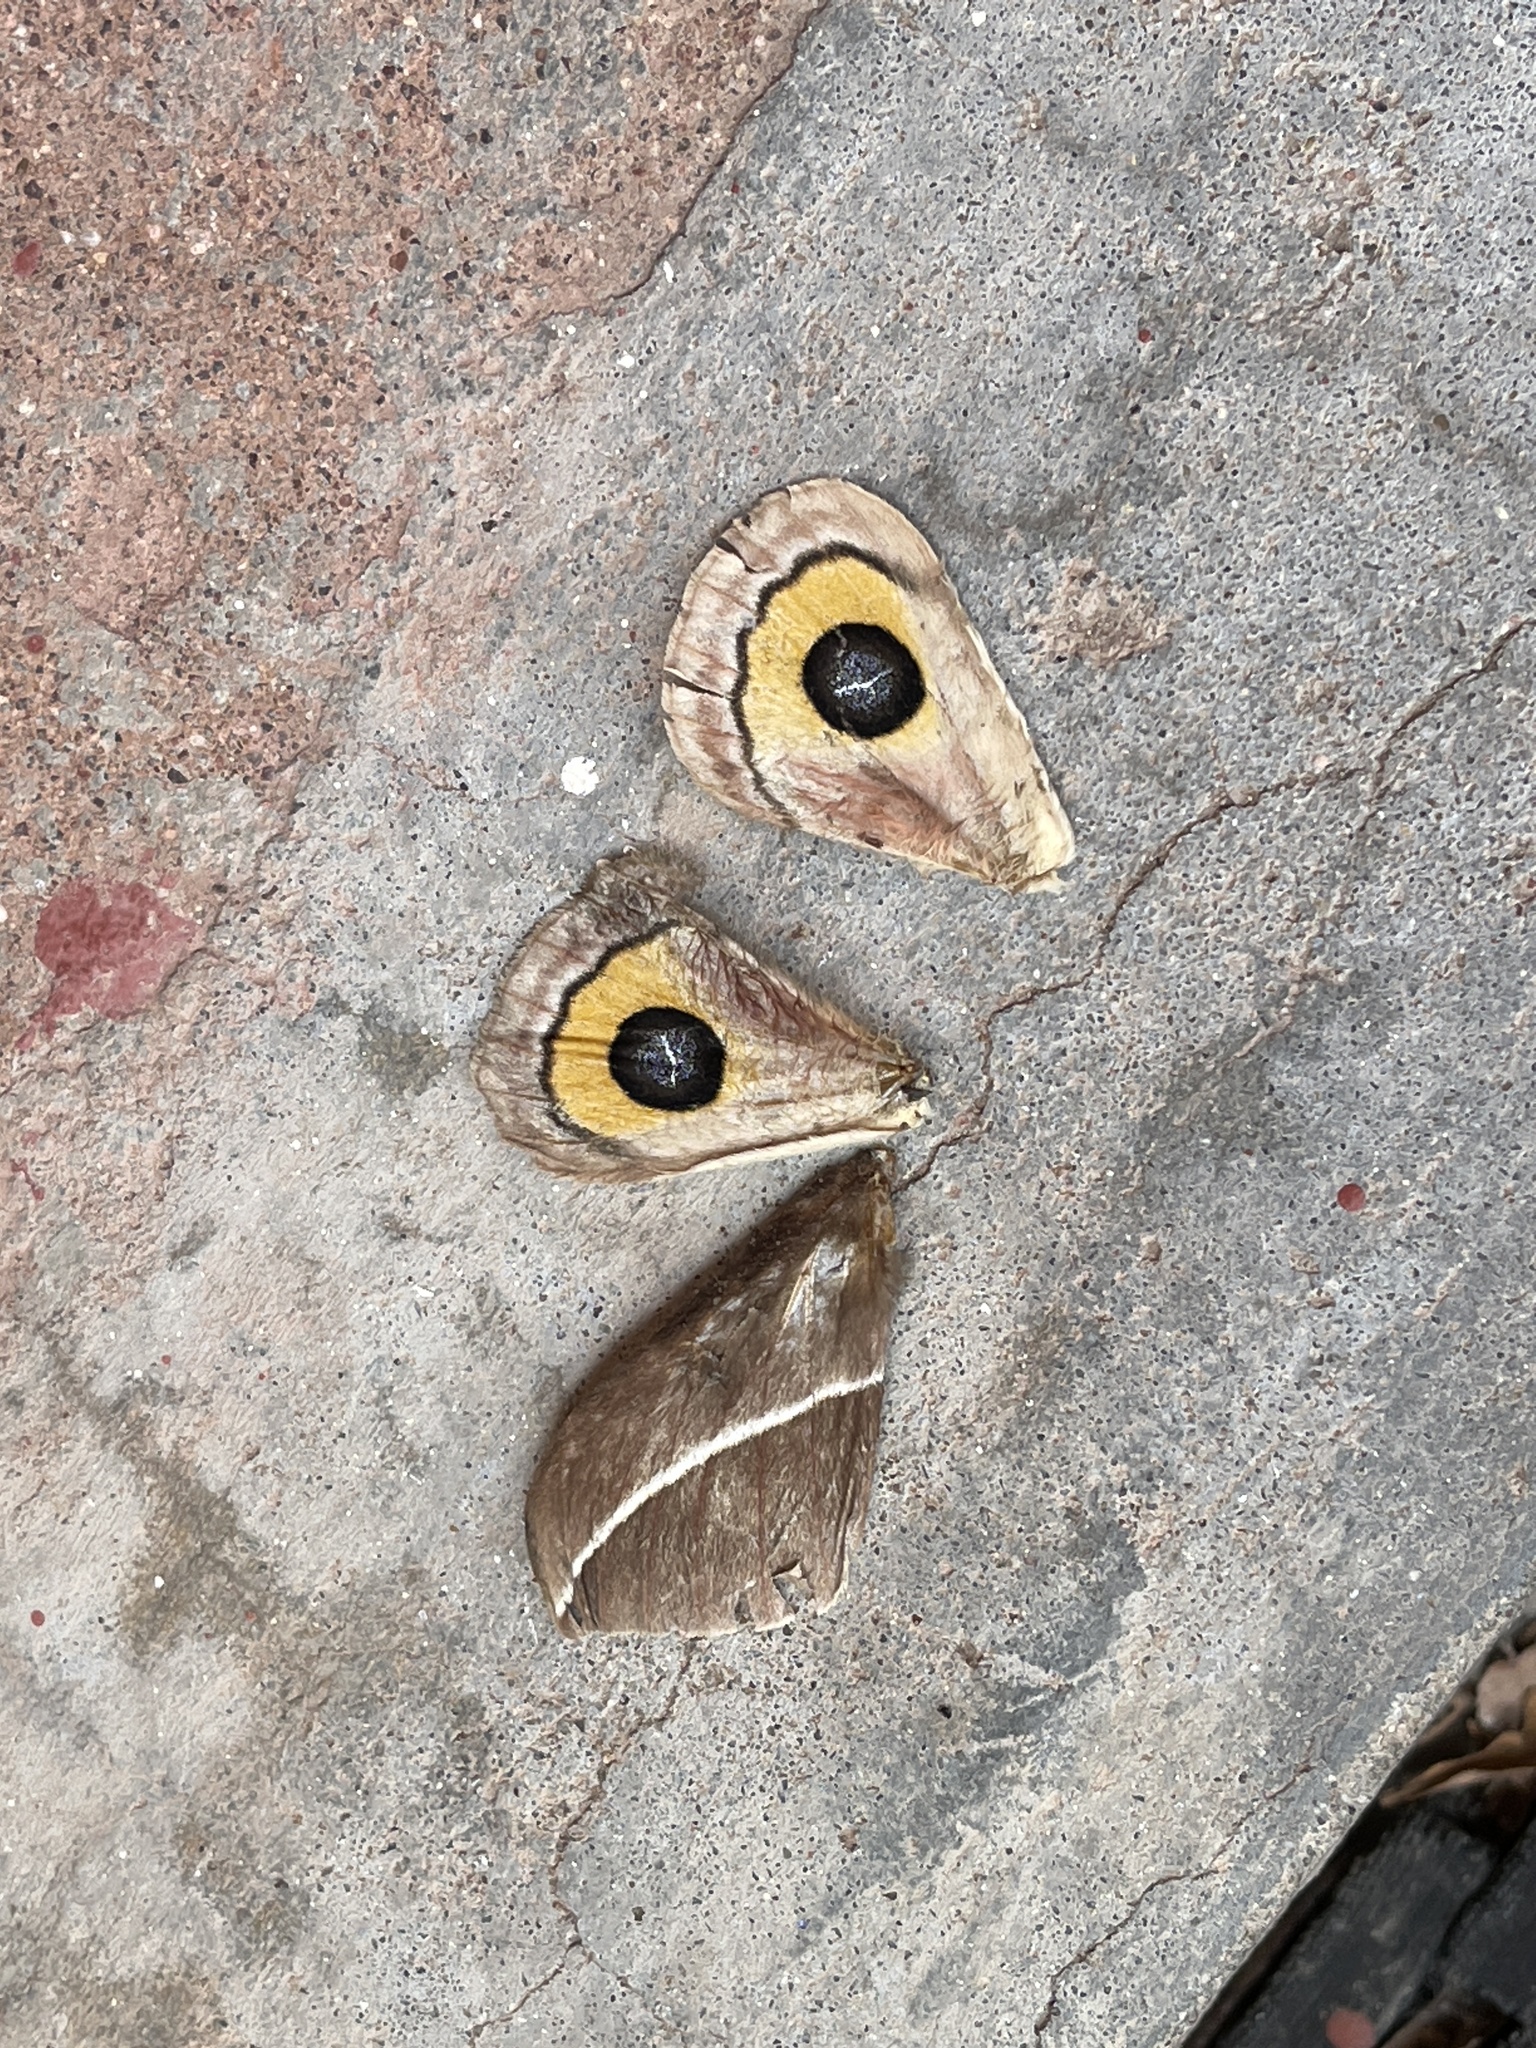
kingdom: Animalia
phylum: Arthropoda
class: Insecta
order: Lepidoptera
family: Saturniidae
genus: Automeris
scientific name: Automeris zephyria
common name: Zephyr eyed silkmoth
